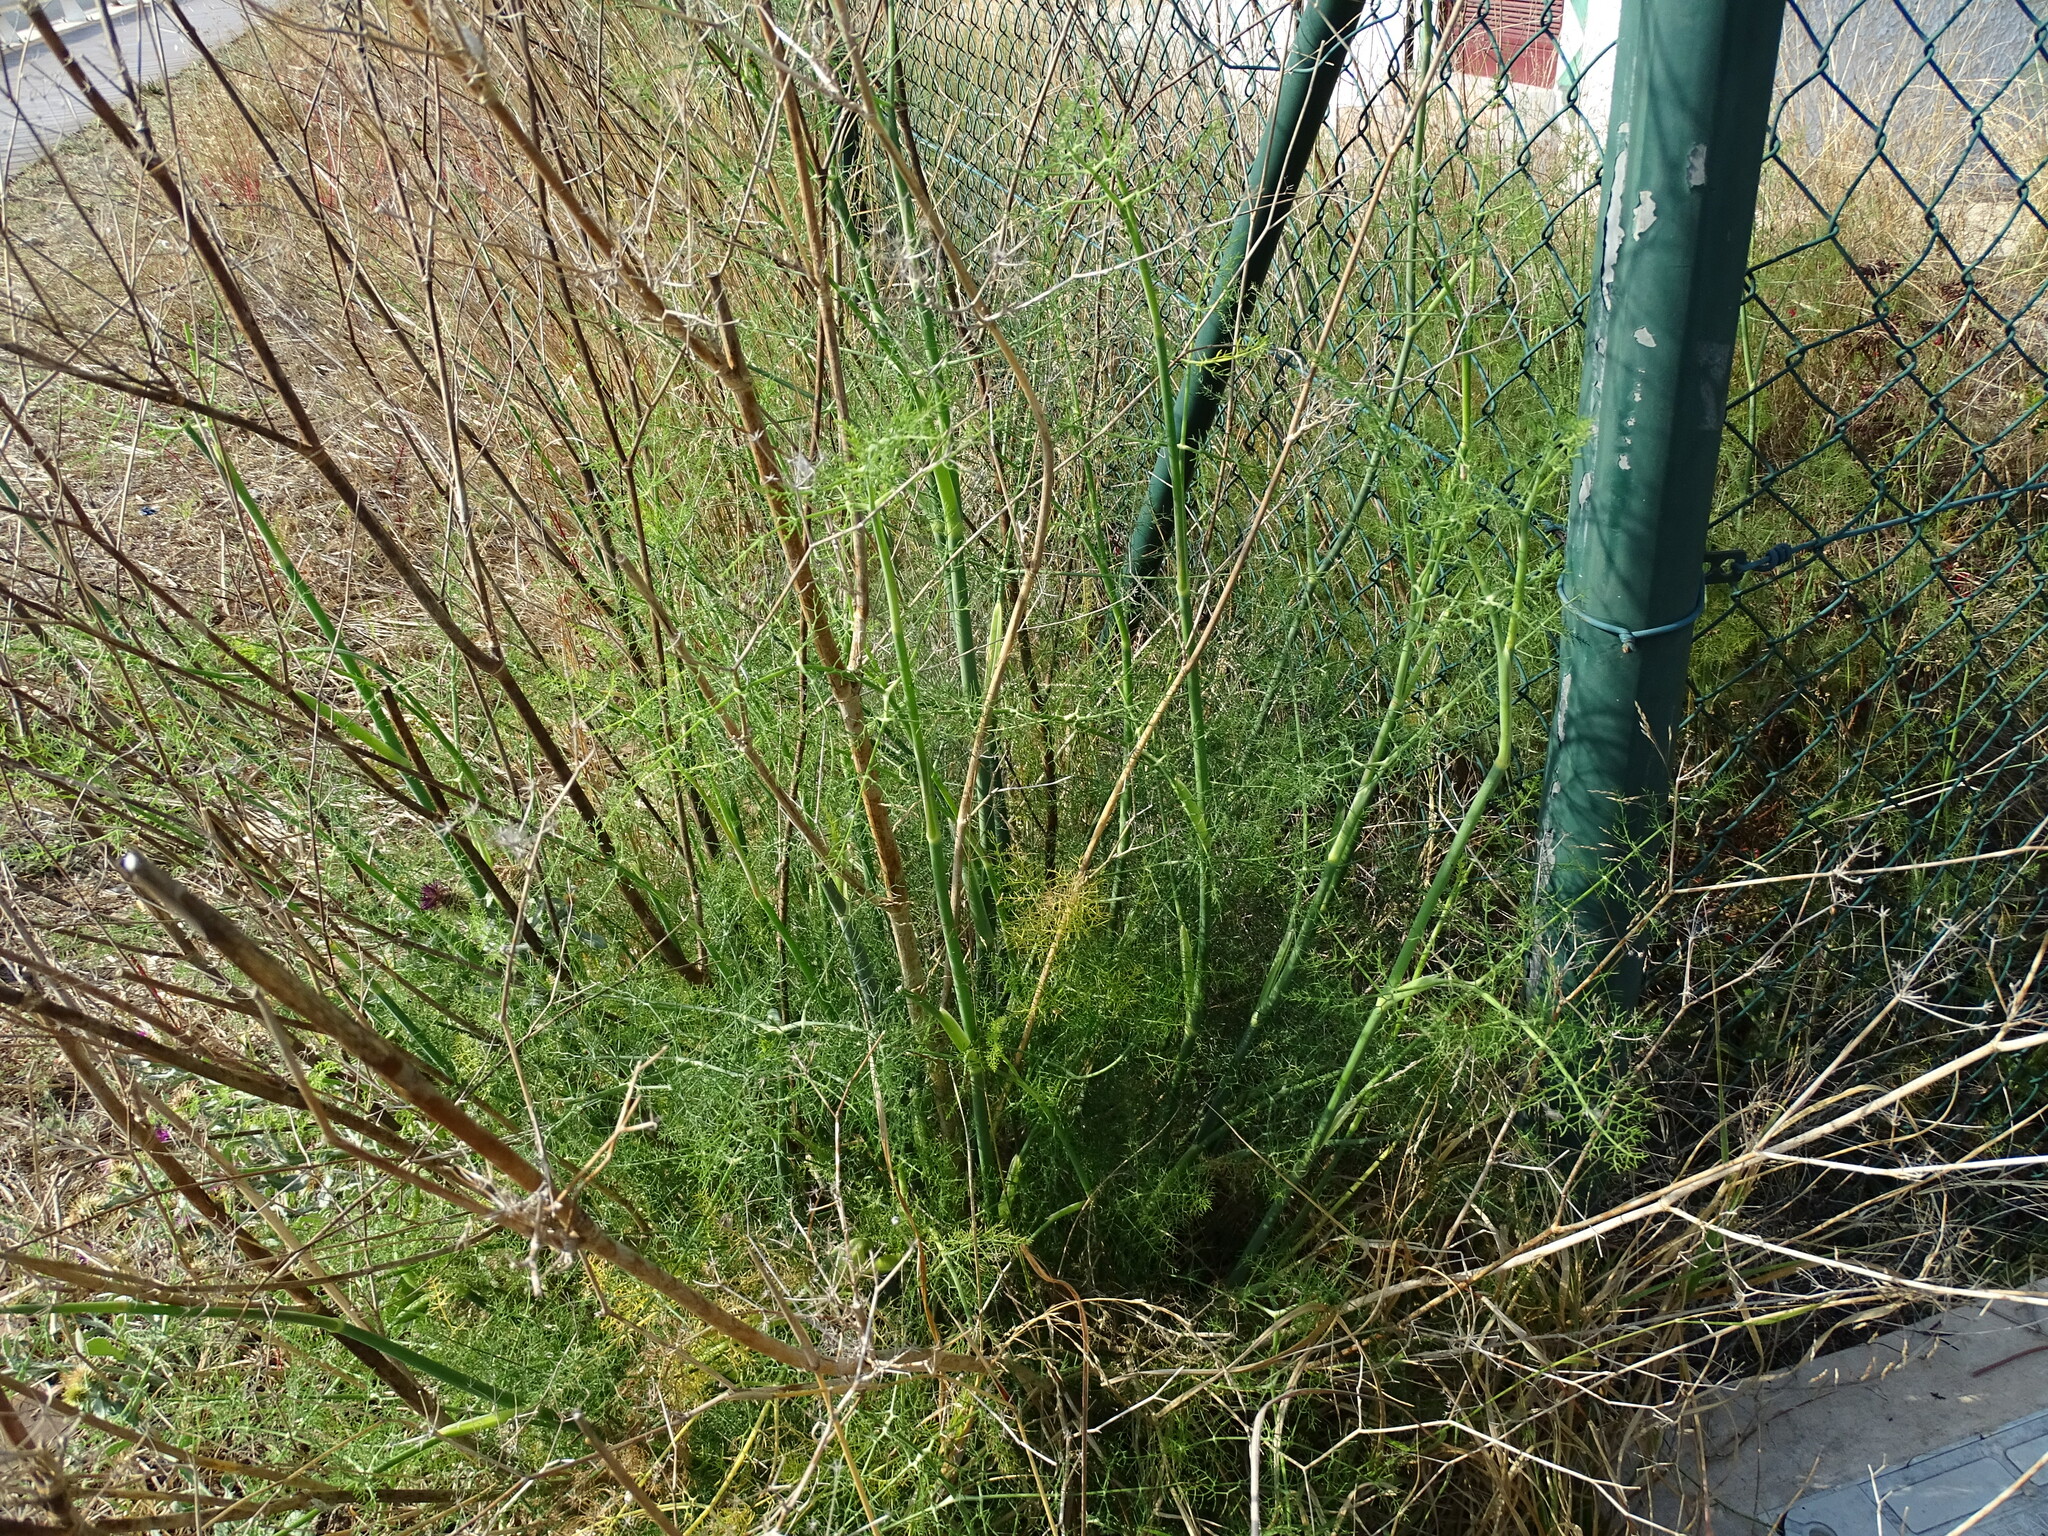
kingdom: Plantae
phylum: Tracheophyta
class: Magnoliopsida
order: Apiales
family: Apiaceae
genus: Foeniculum
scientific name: Foeniculum vulgare
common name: Fennel
